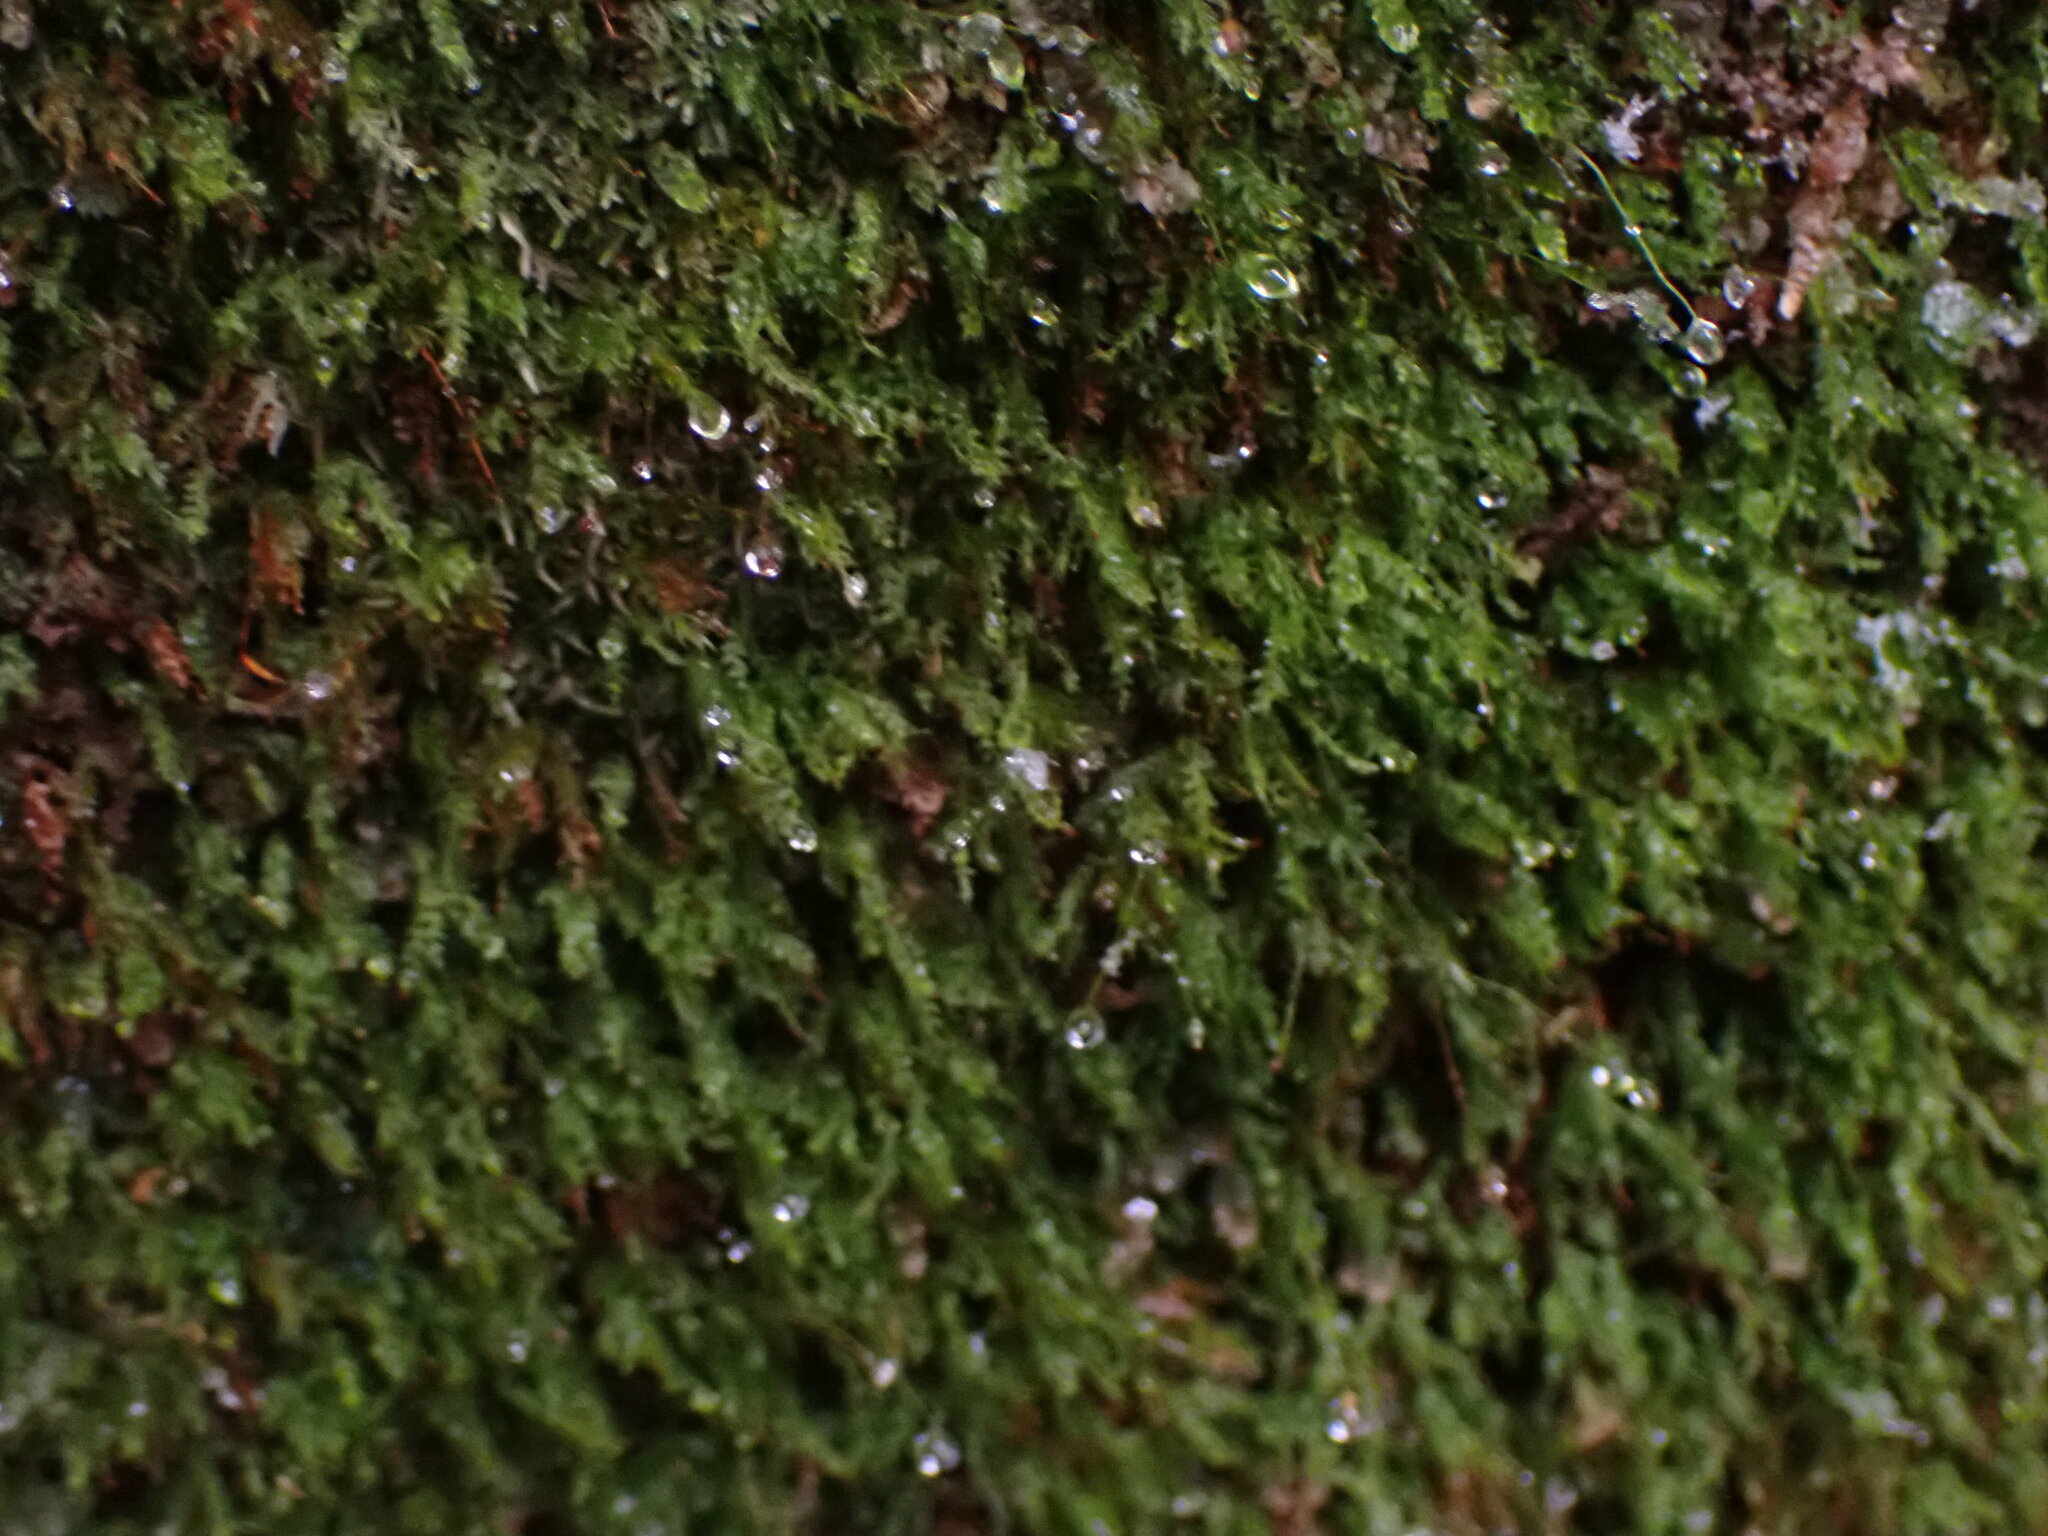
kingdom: Plantae
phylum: Bryophyta
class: Polytrichopsida
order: Tetraphidales
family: Tetraphidaceae
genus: Tetraphis
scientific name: Tetraphis pellucida
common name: Common four-toothed moss
